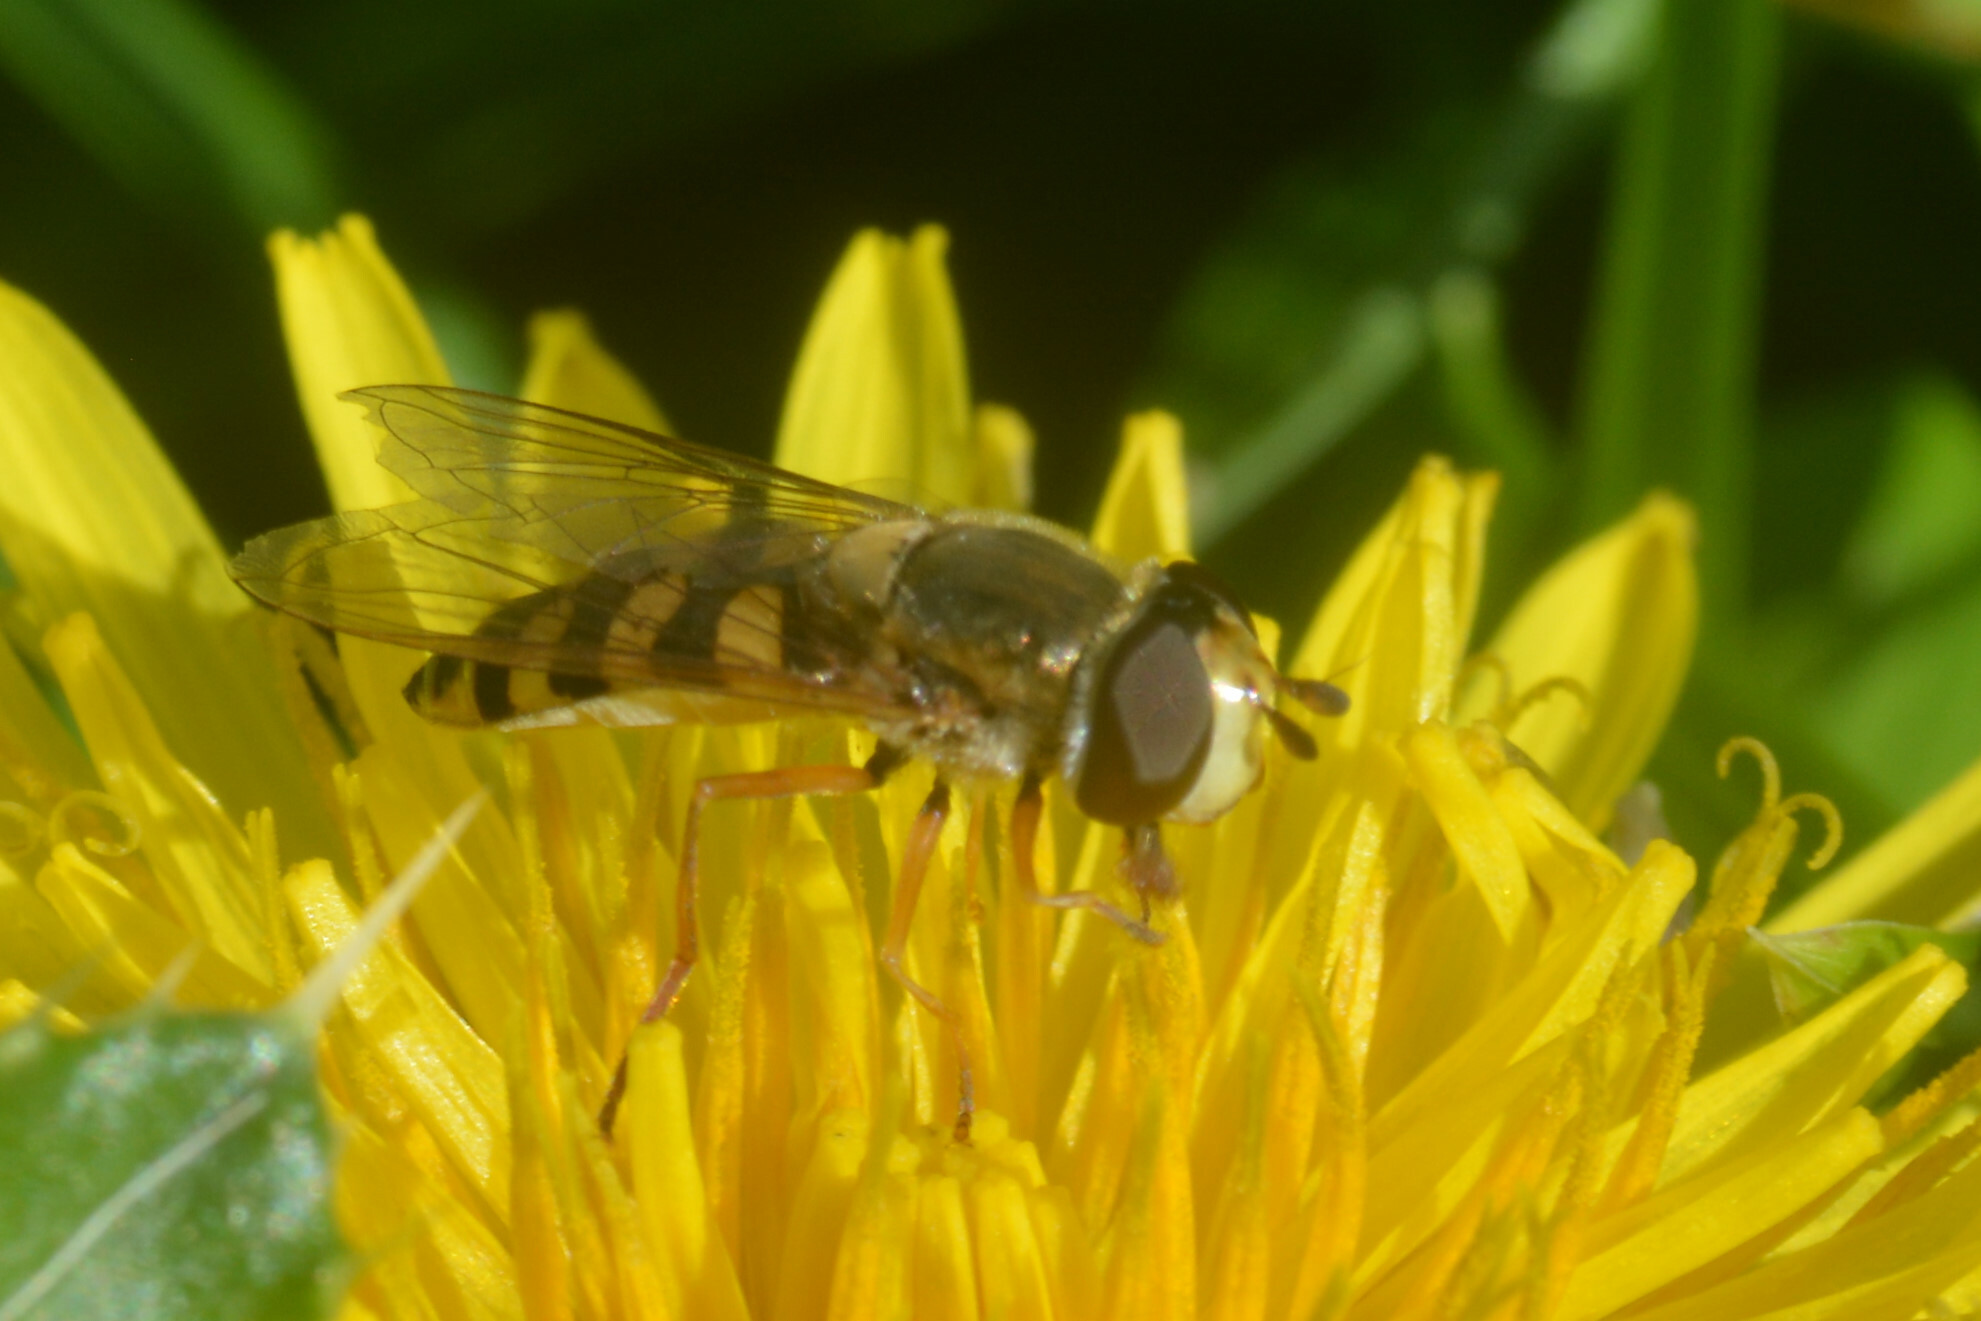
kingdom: Animalia
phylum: Arthropoda
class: Insecta
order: Diptera
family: Syrphidae
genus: Eupeodes
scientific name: Eupeodes corollae
